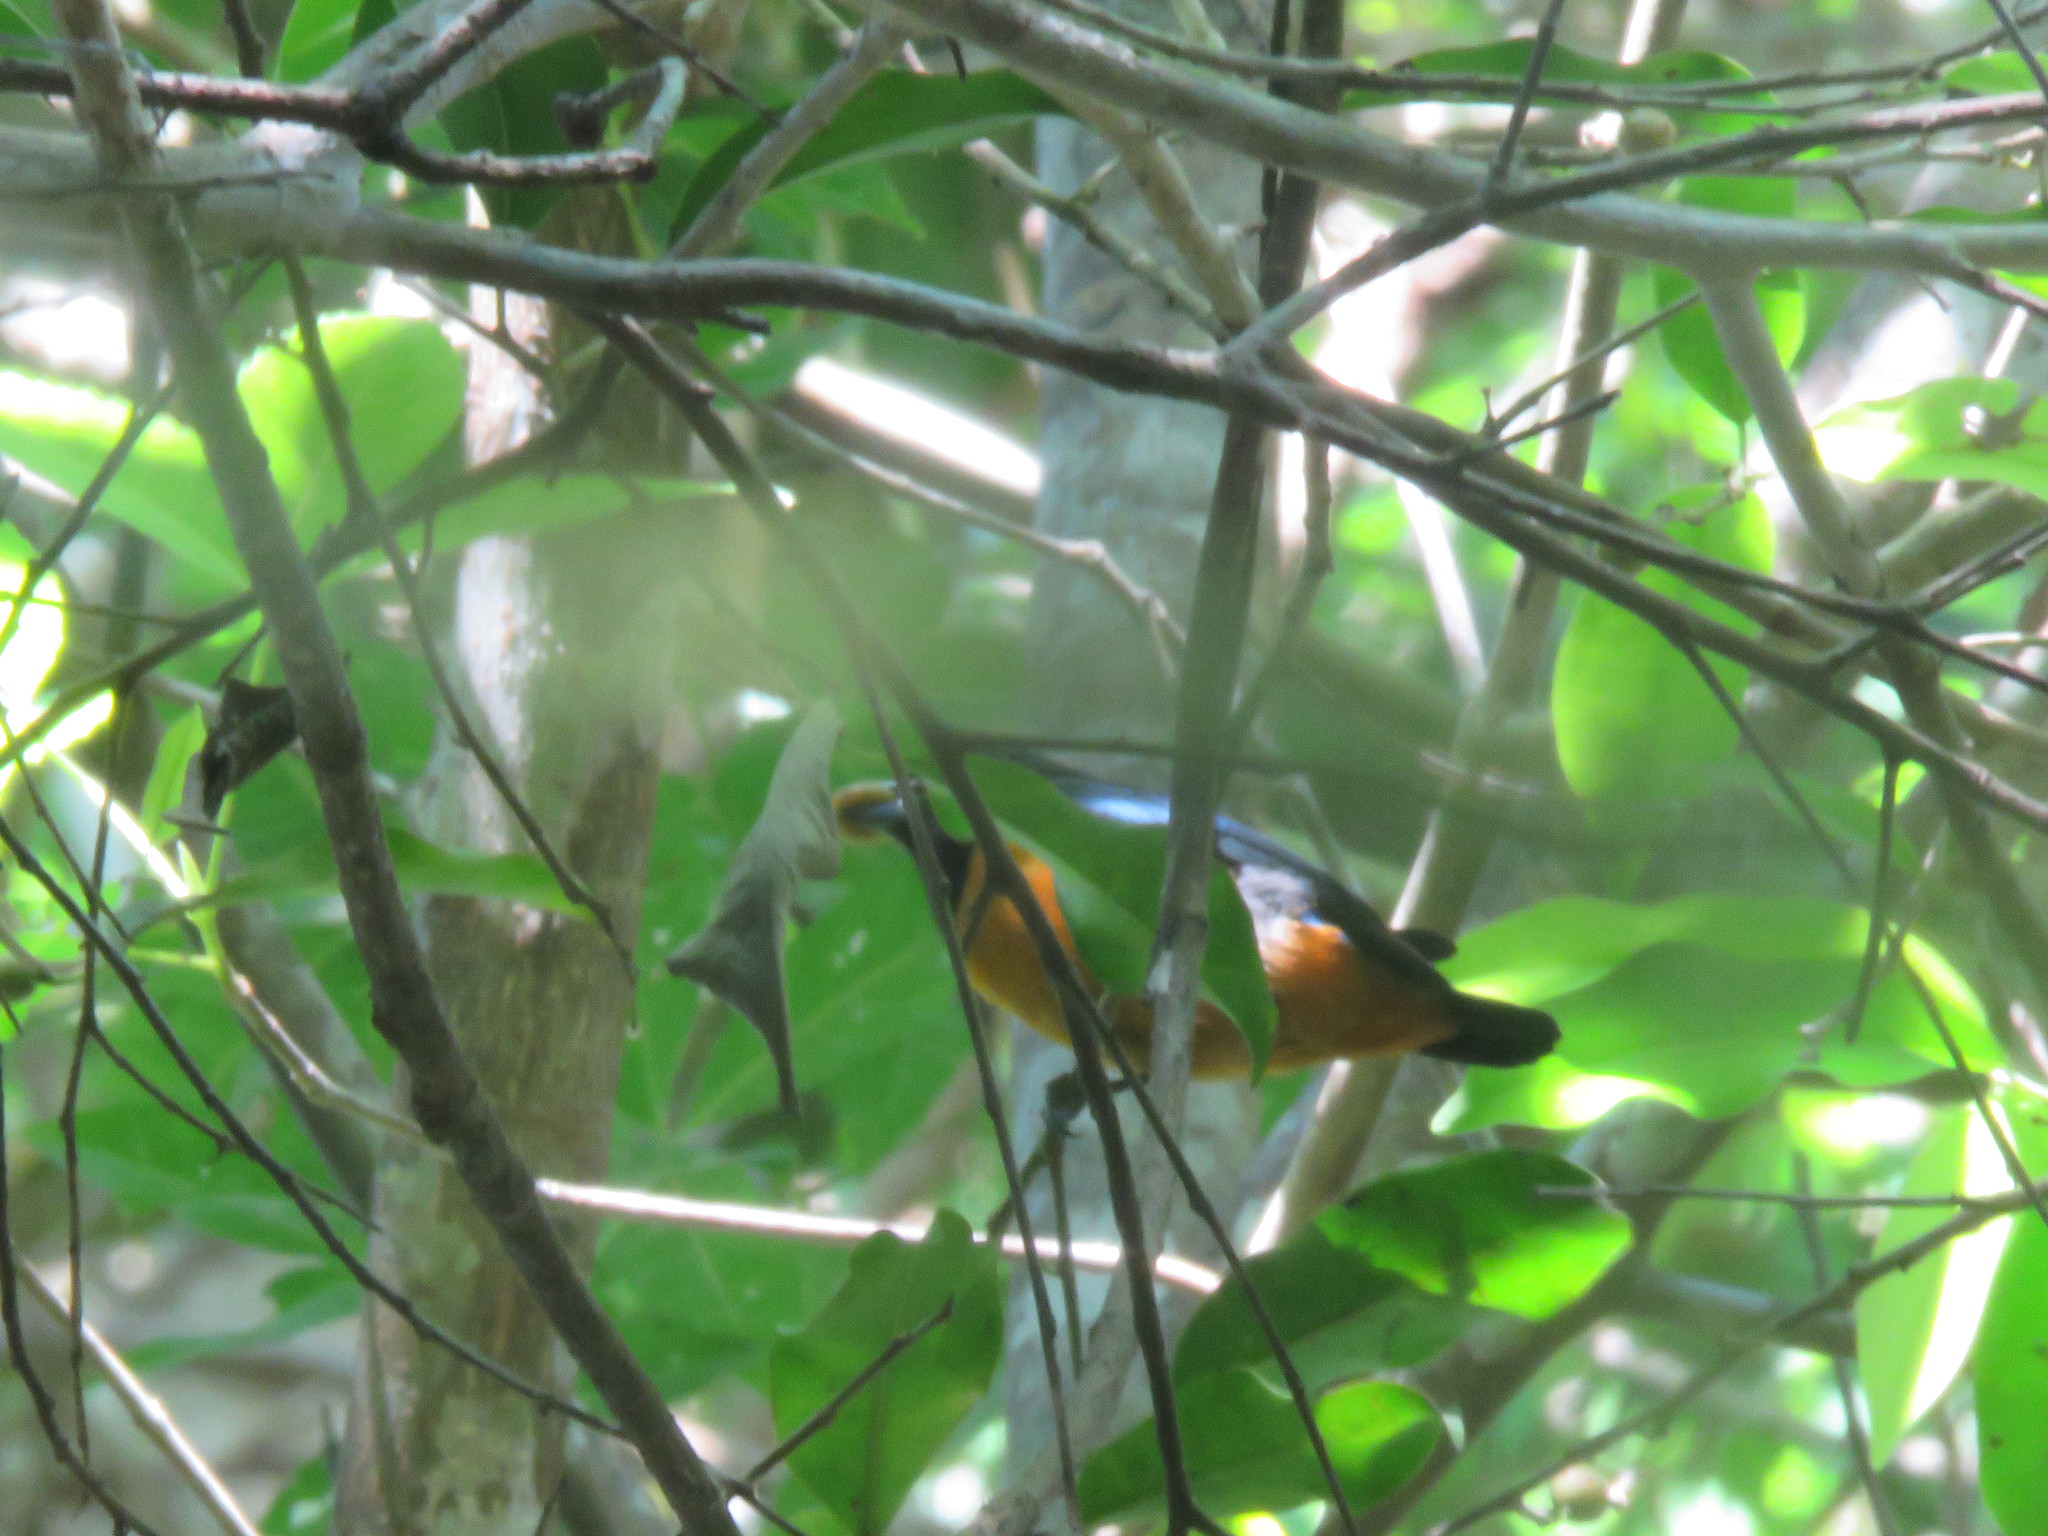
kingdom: Animalia
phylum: Chordata
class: Aves
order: Passeriformes
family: Fringillidae
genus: Euphonia
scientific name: Euphonia rufiventris
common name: Rufous-bellied euphonia
